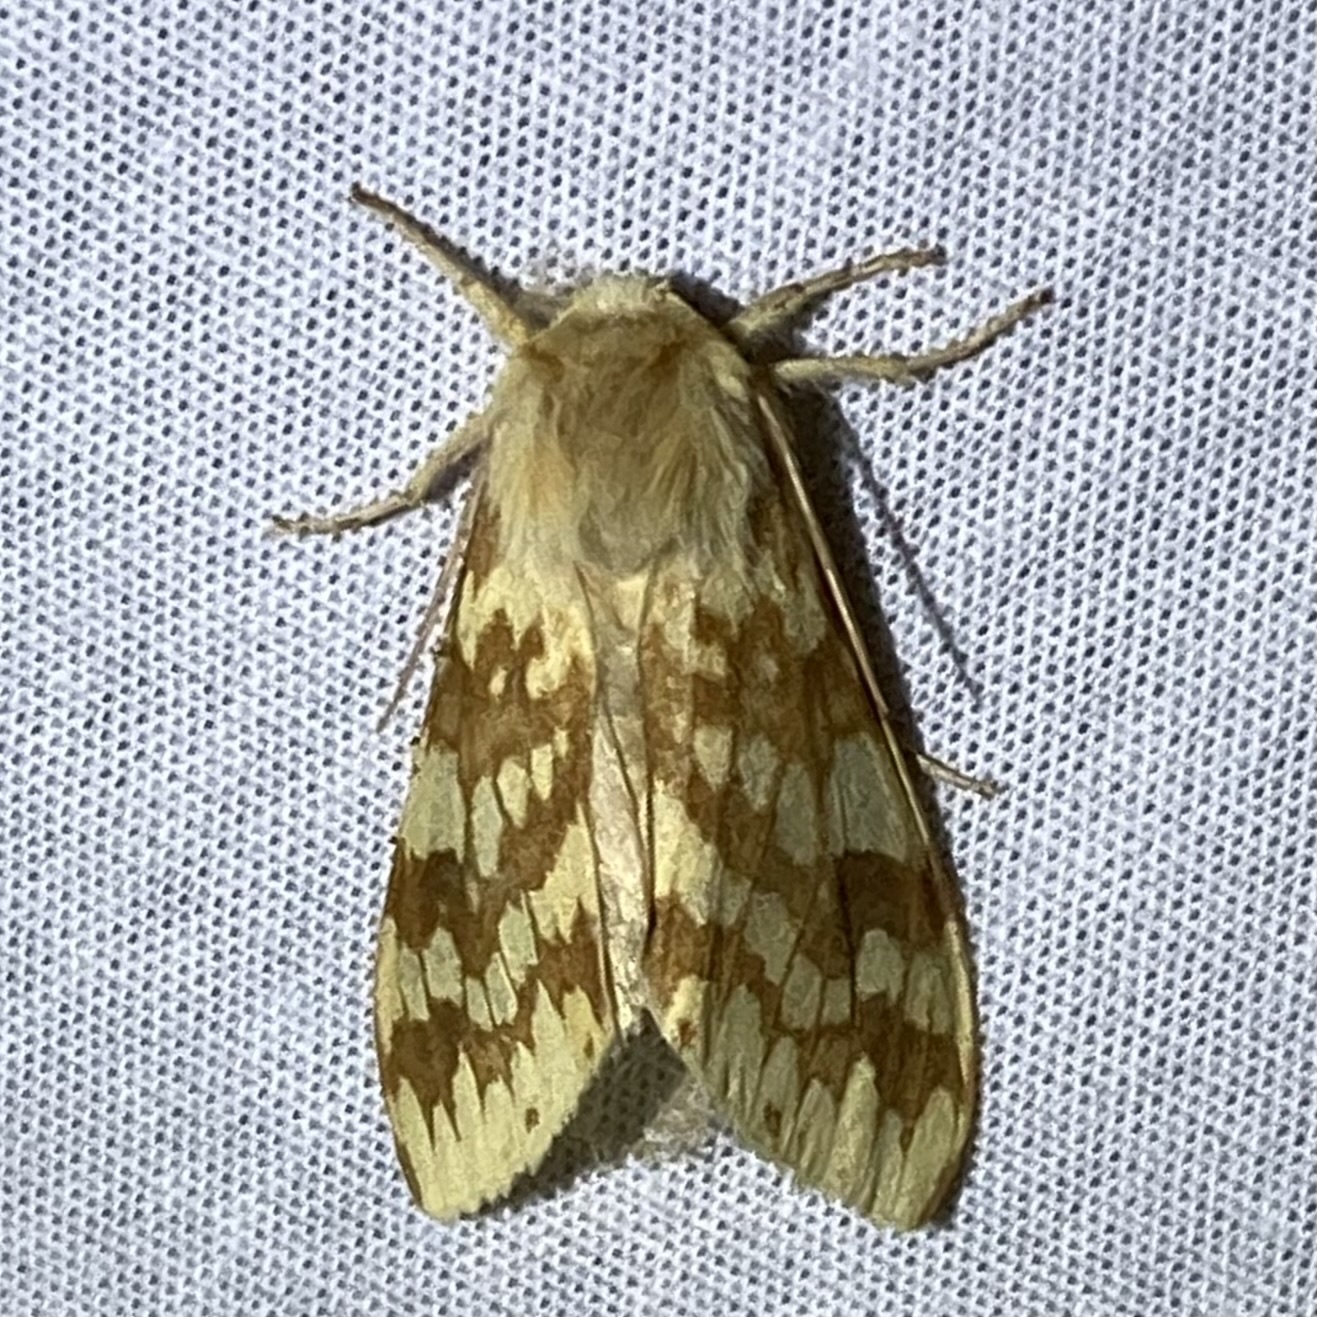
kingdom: Animalia
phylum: Arthropoda
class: Insecta
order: Lepidoptera
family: Erebidae
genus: Lophocampa
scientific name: Lophocampa maculata
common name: Spotted tussock moth
